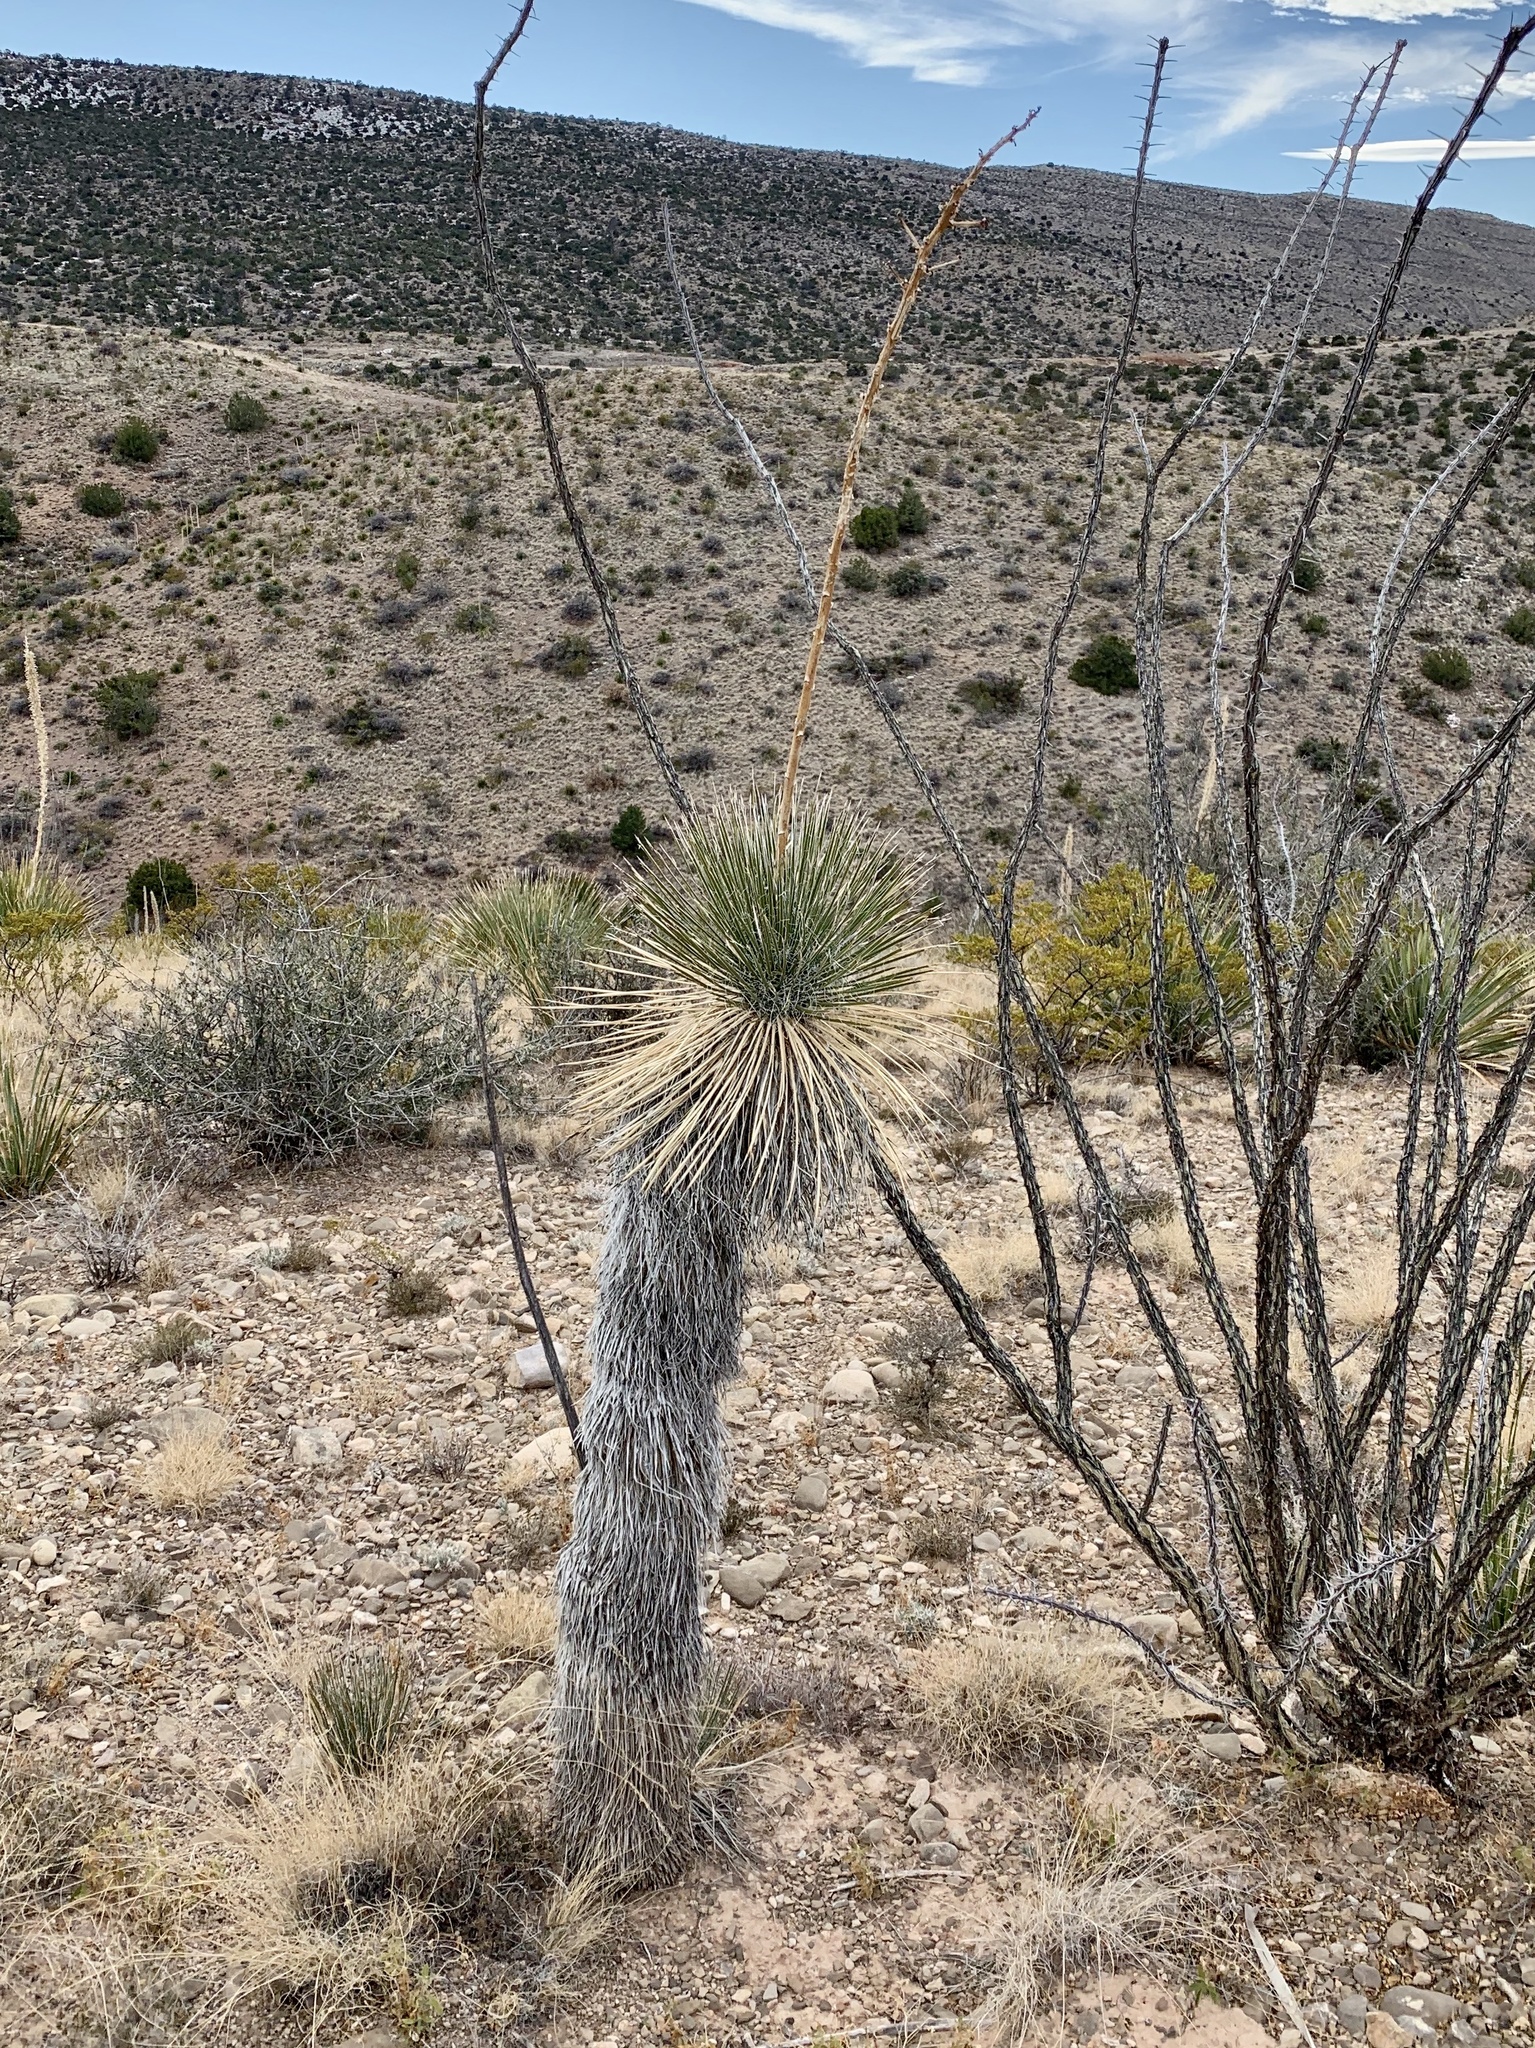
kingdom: Plantae
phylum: Tracheophyta
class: Liliopsida
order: Asparagales
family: Asparagaceae
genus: Yucca
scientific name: Yucca elata
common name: Palmella
